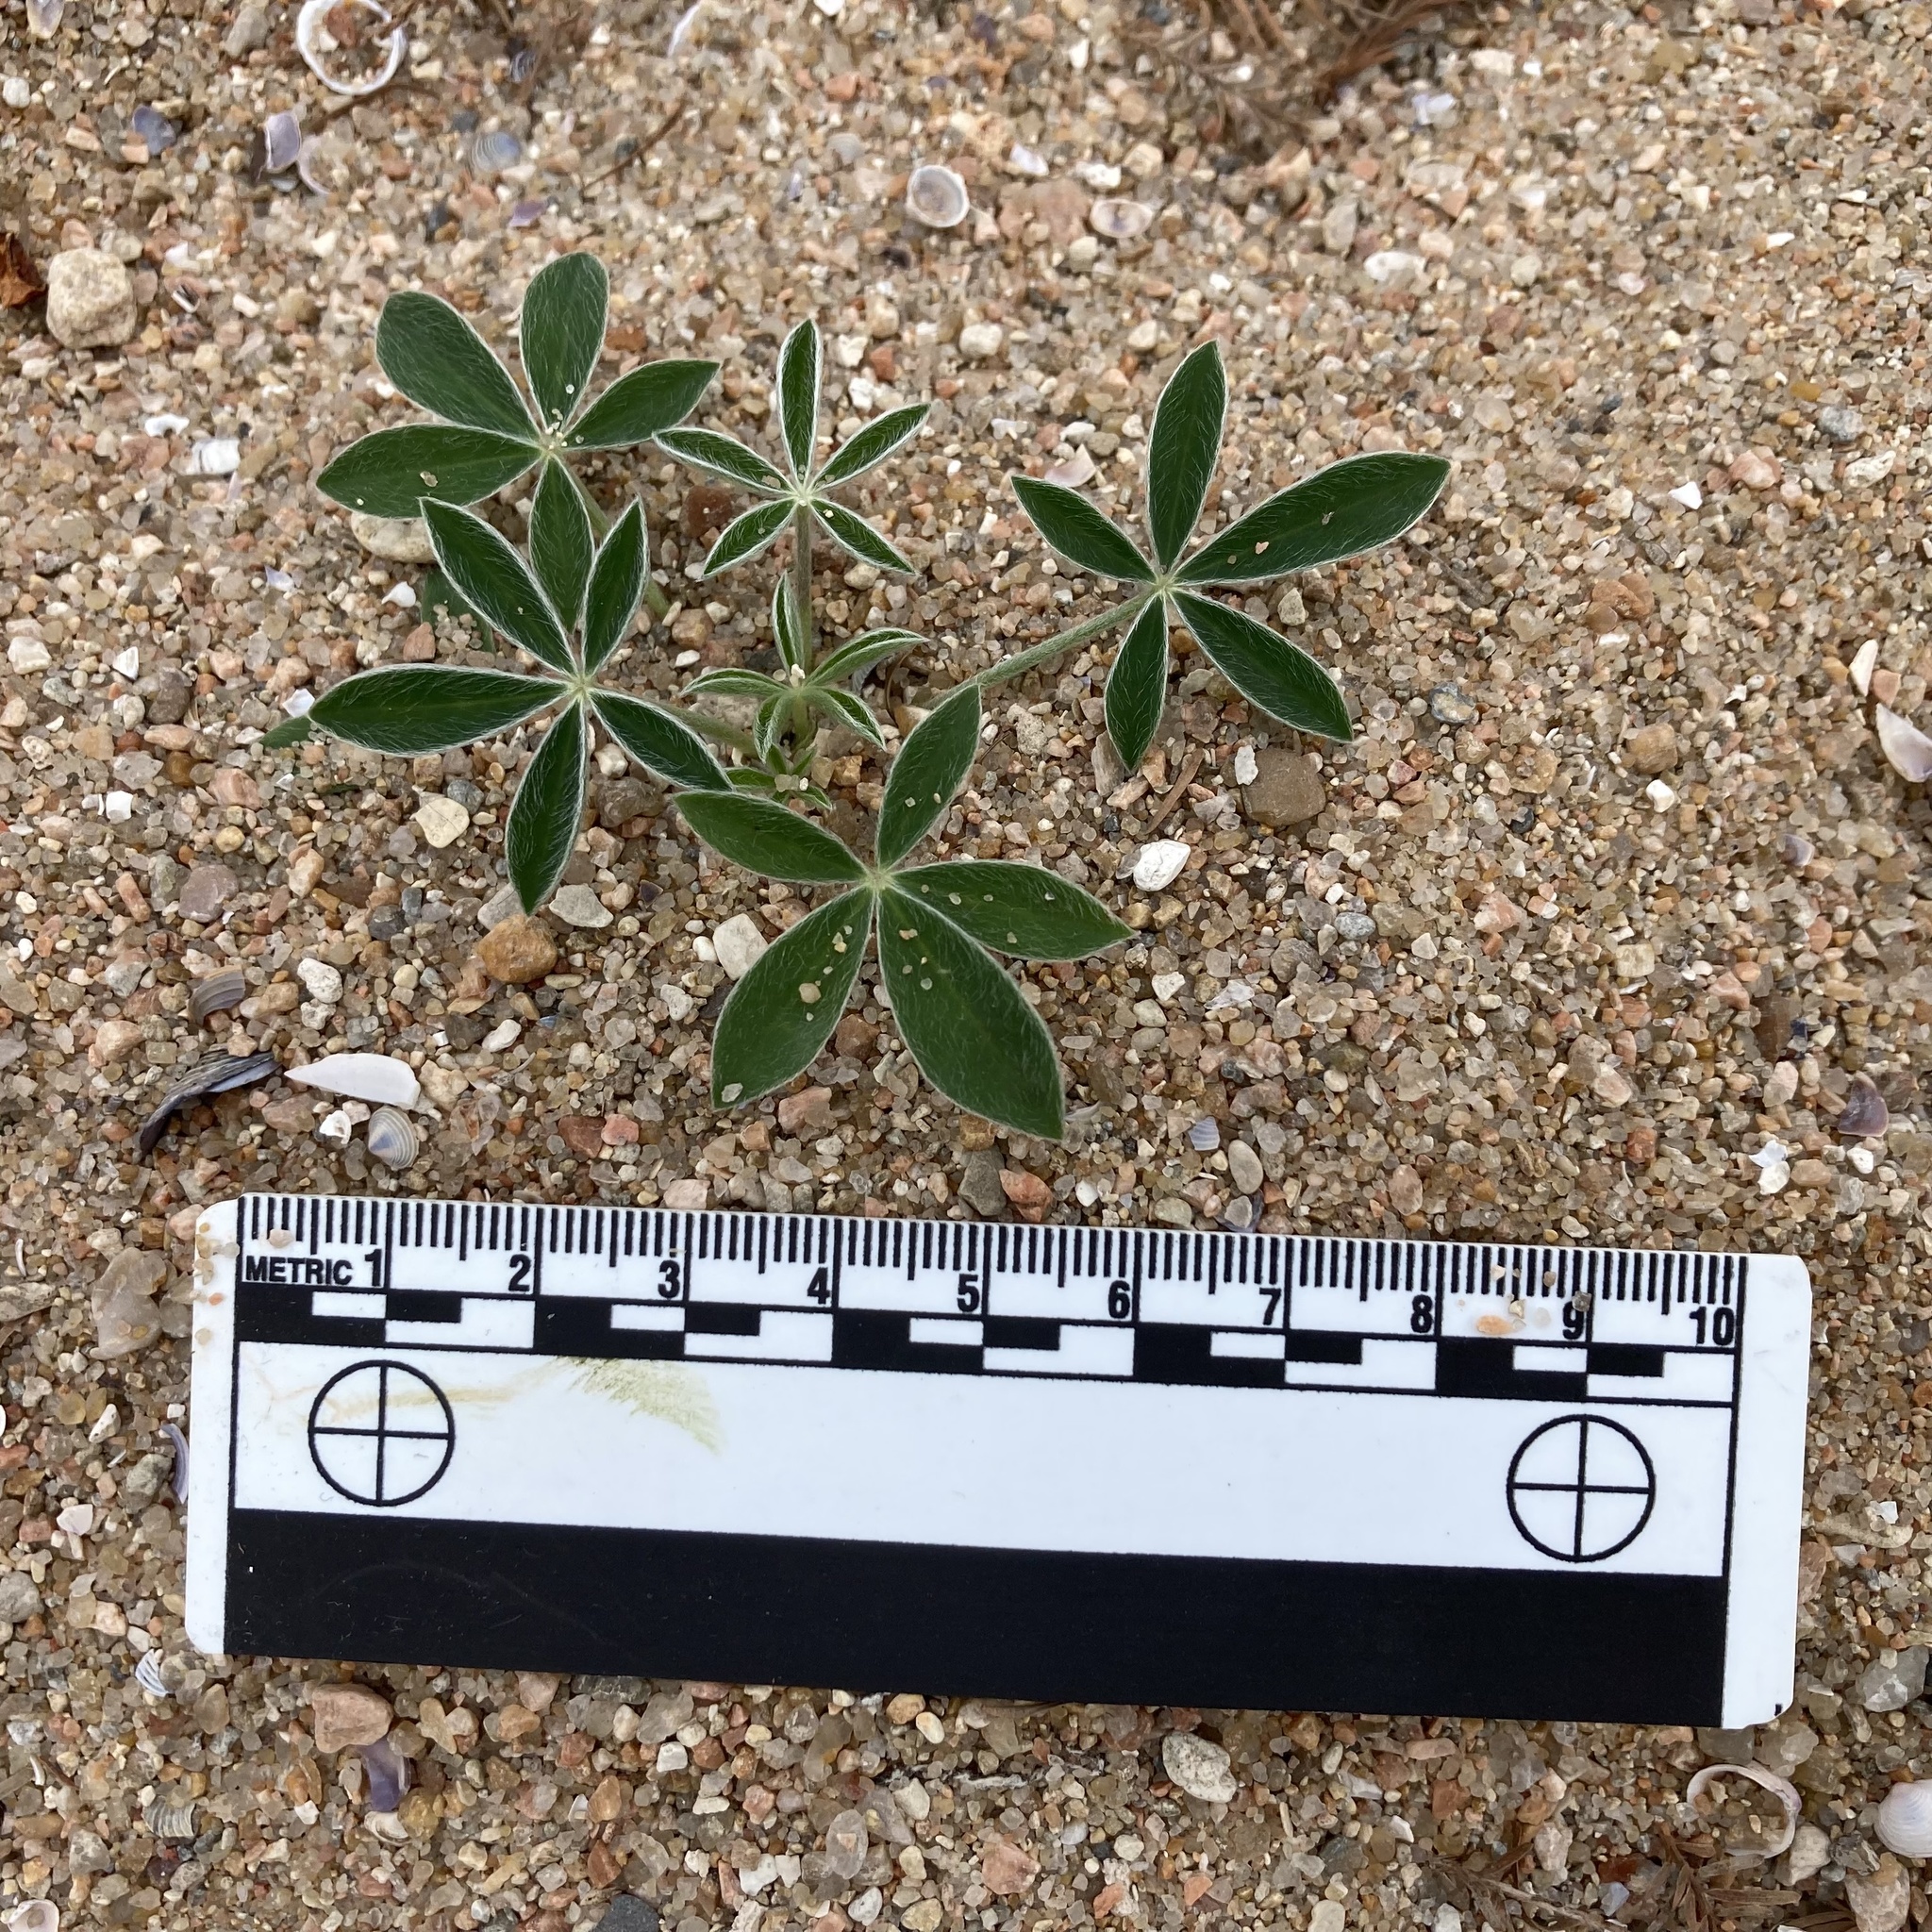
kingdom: Plantae
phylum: Tracheophyta
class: Magnoliopsida
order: Fabales
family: Fabaceae
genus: Lupinus
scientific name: Lupinus texensis
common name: Texas bluebonnet
